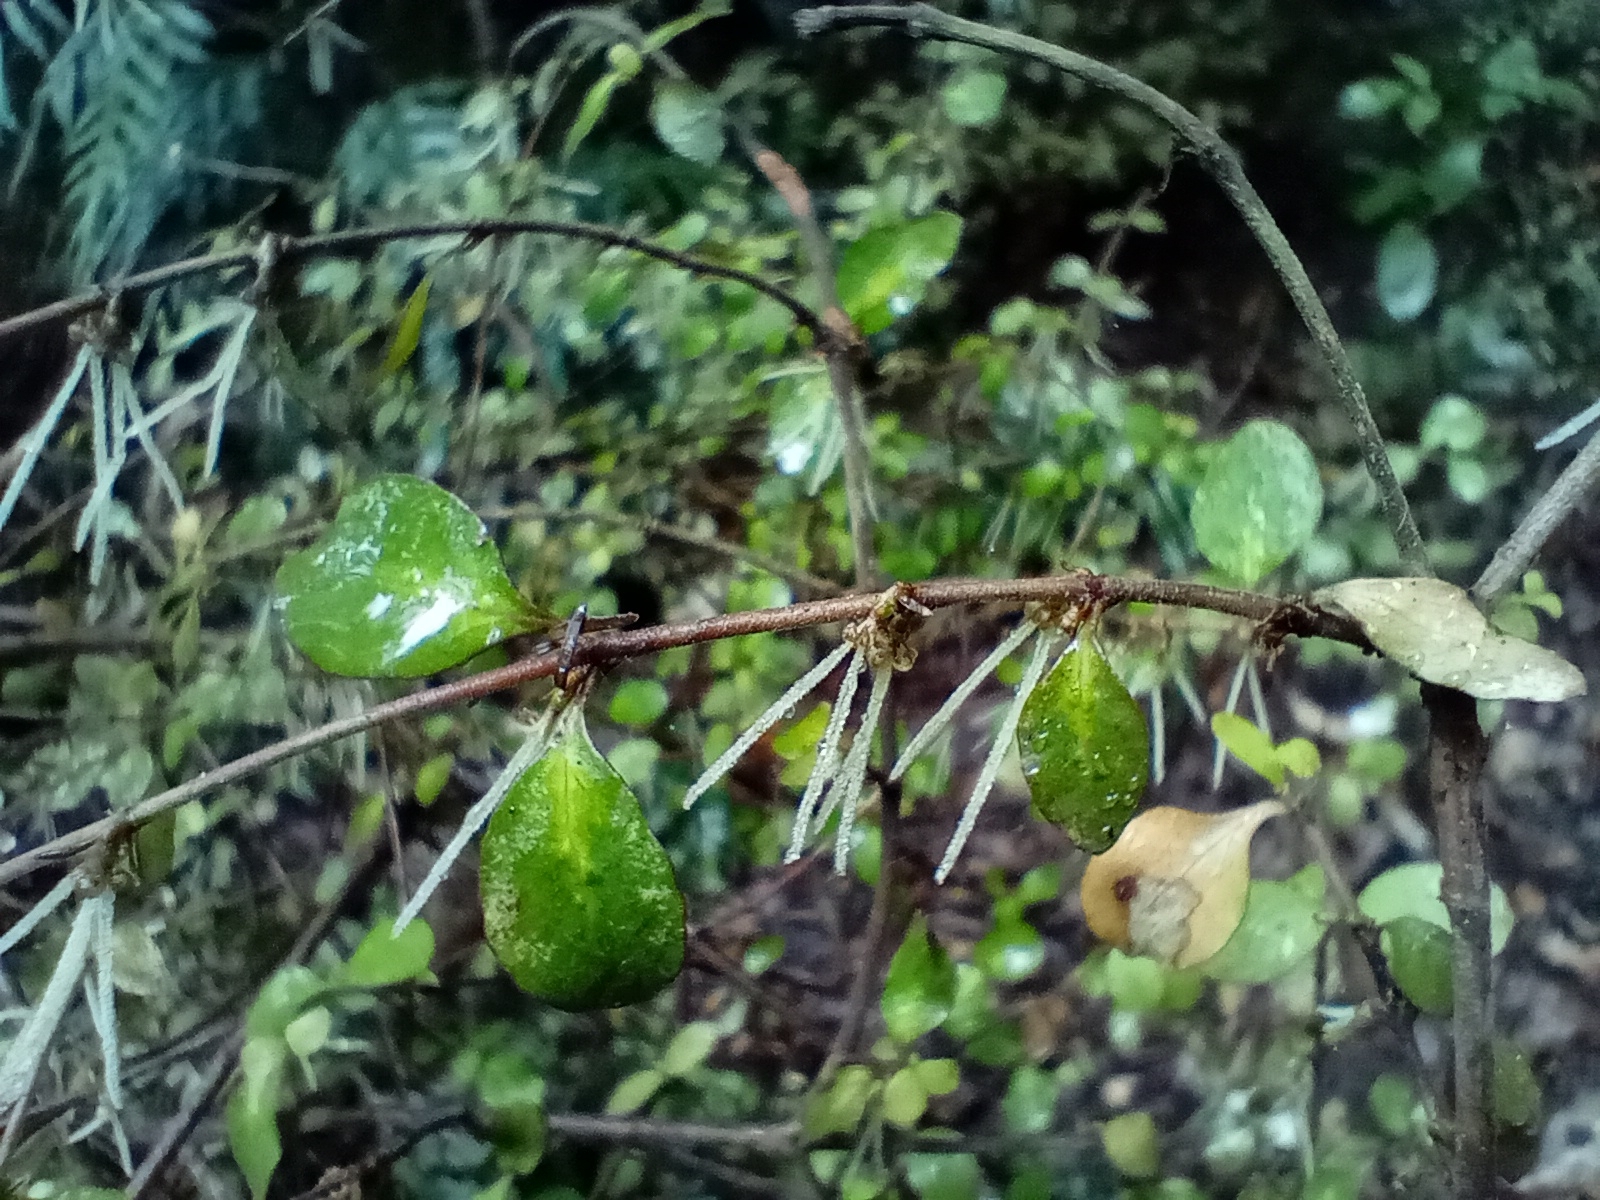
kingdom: Plantae
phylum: Tracheophyta
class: Magnoliopsida
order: Gentianales
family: Rubiaceae
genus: Coprosma
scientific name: Coprosma rhamnoides
